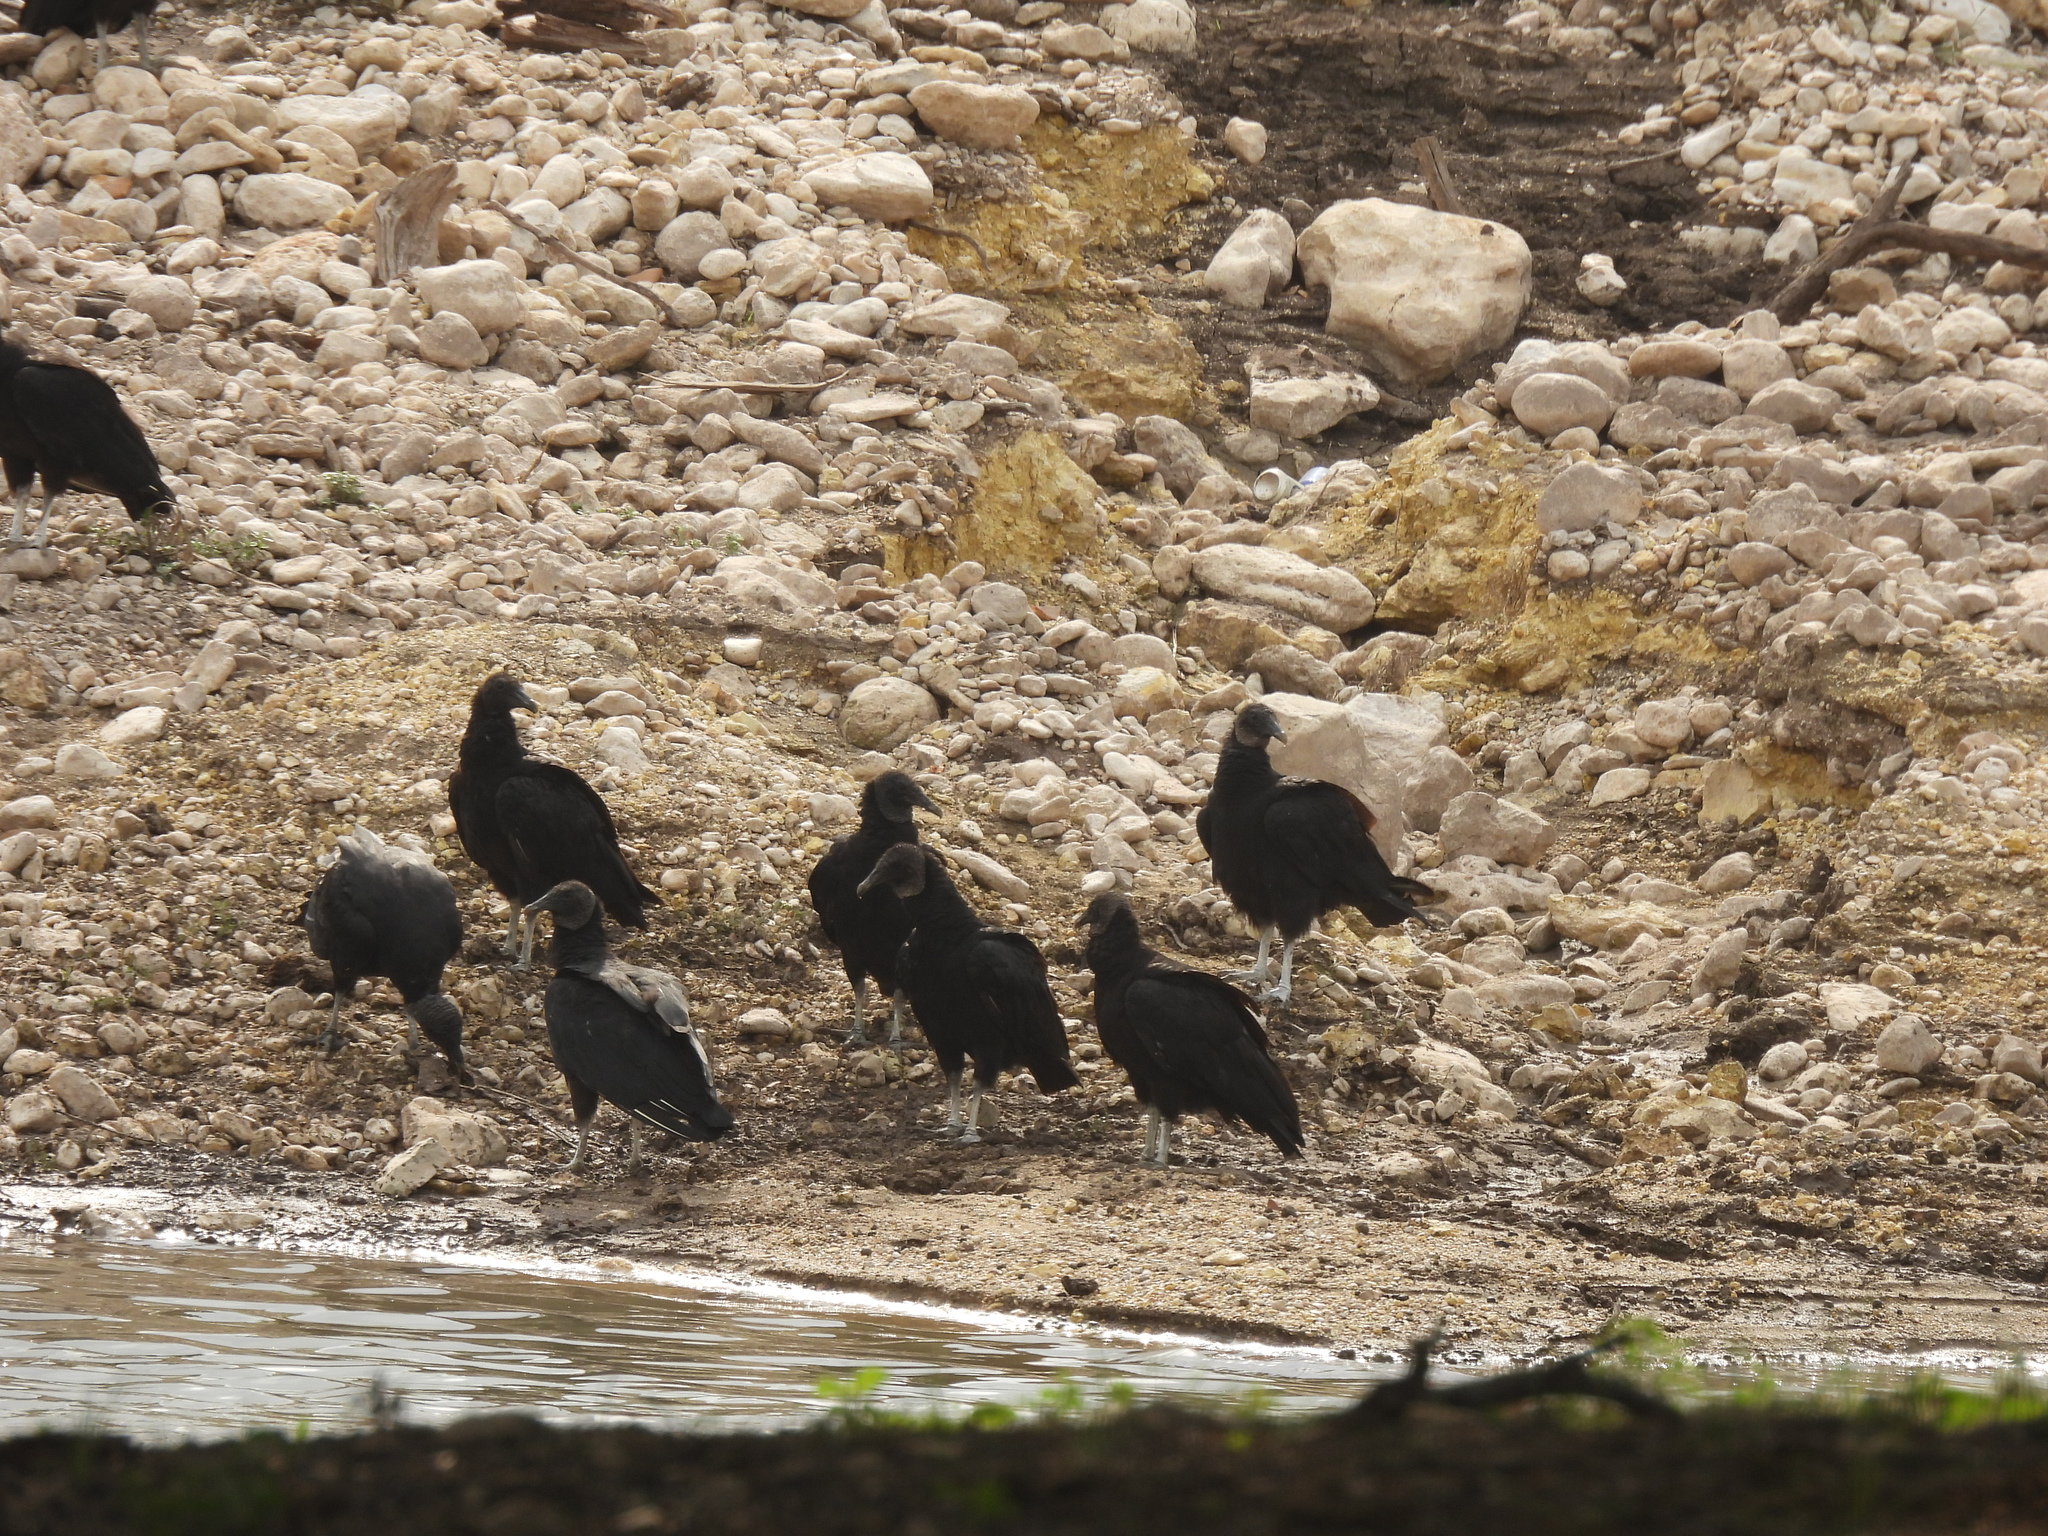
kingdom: Animalia
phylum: Chordata
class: Aves
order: Accipitriformes
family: Cathartidae
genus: Coragyps
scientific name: Coragyps atratus
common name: Black vulture
